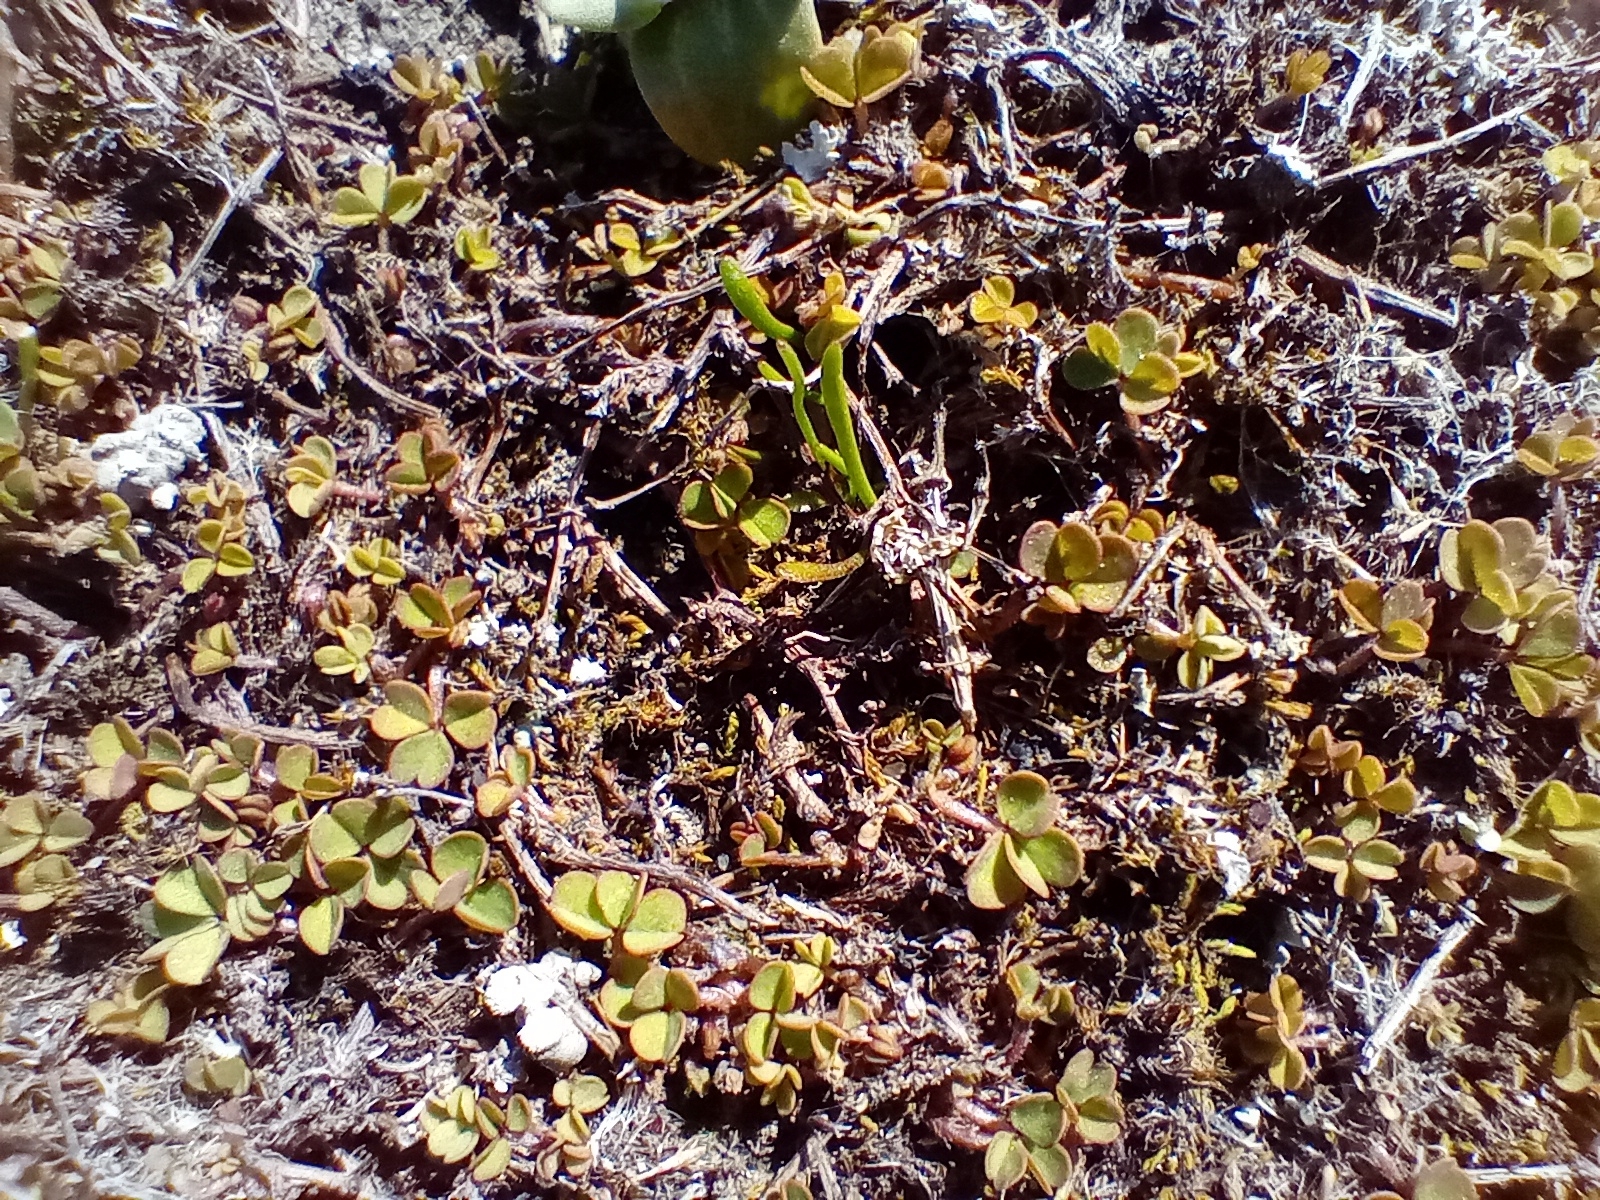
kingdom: Plantae
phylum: Tracheophyta
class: Magnoliopsida
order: Oxalidales
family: Oxalidaceae
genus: Oxalis
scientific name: Oxalis exilis
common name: Least yellow-sorrel
